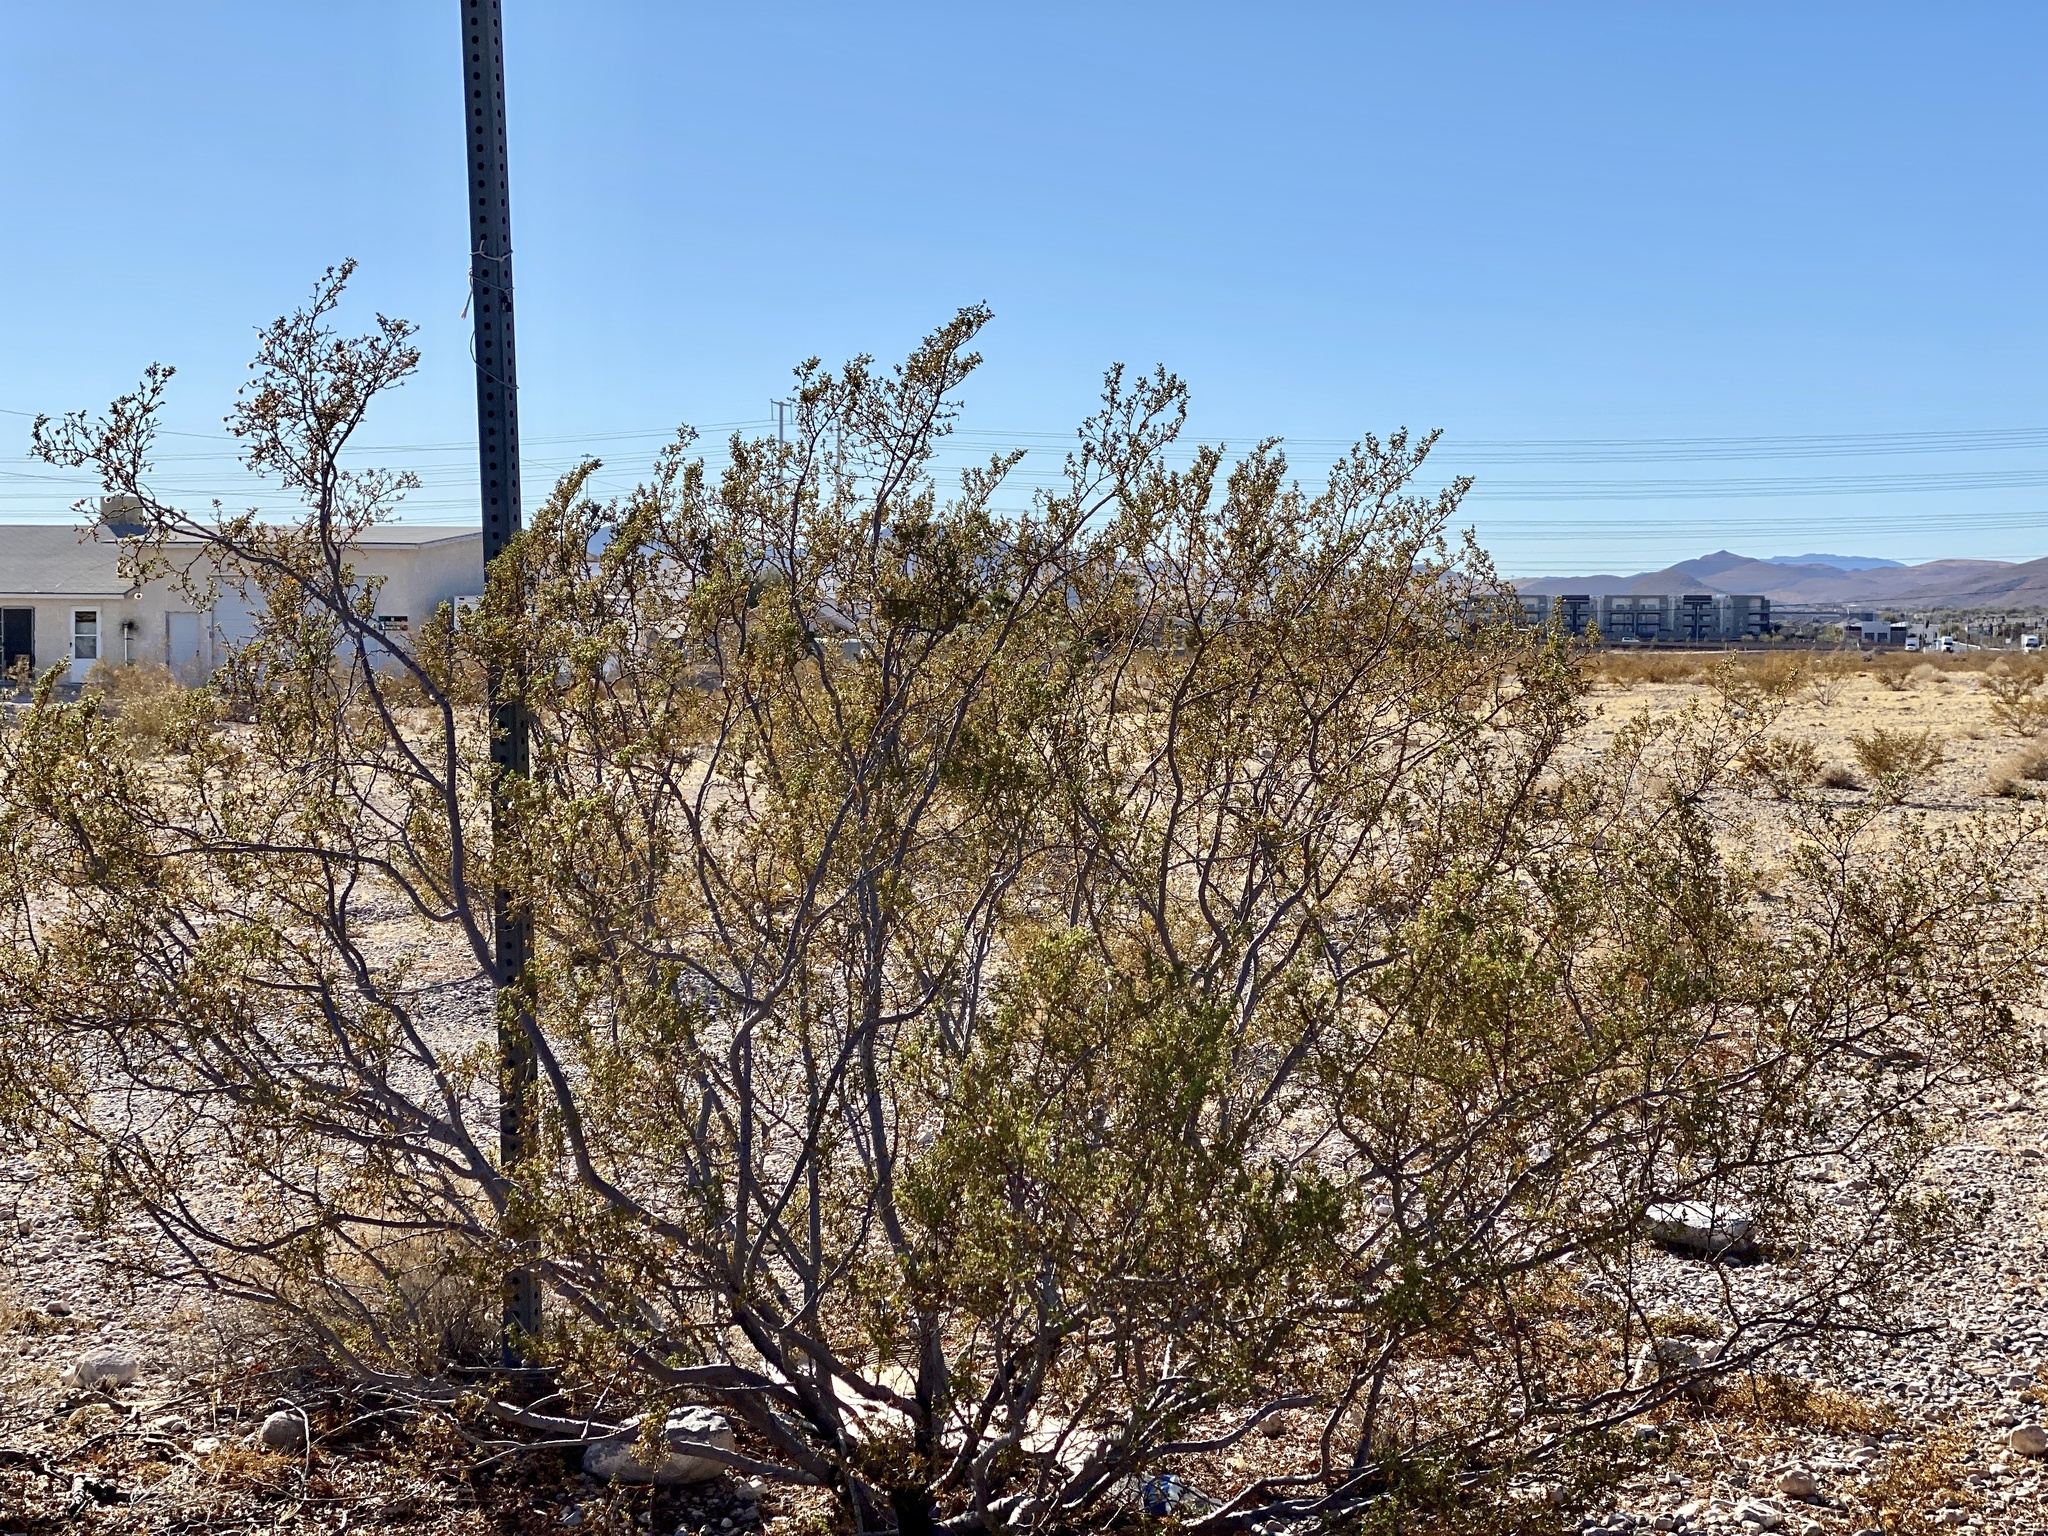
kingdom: Plantae
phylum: Tracheophyta
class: Magnoliopsida
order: Zygophyllales
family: Zygophyllaceae
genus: Larrea
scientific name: Larrea tridentata
